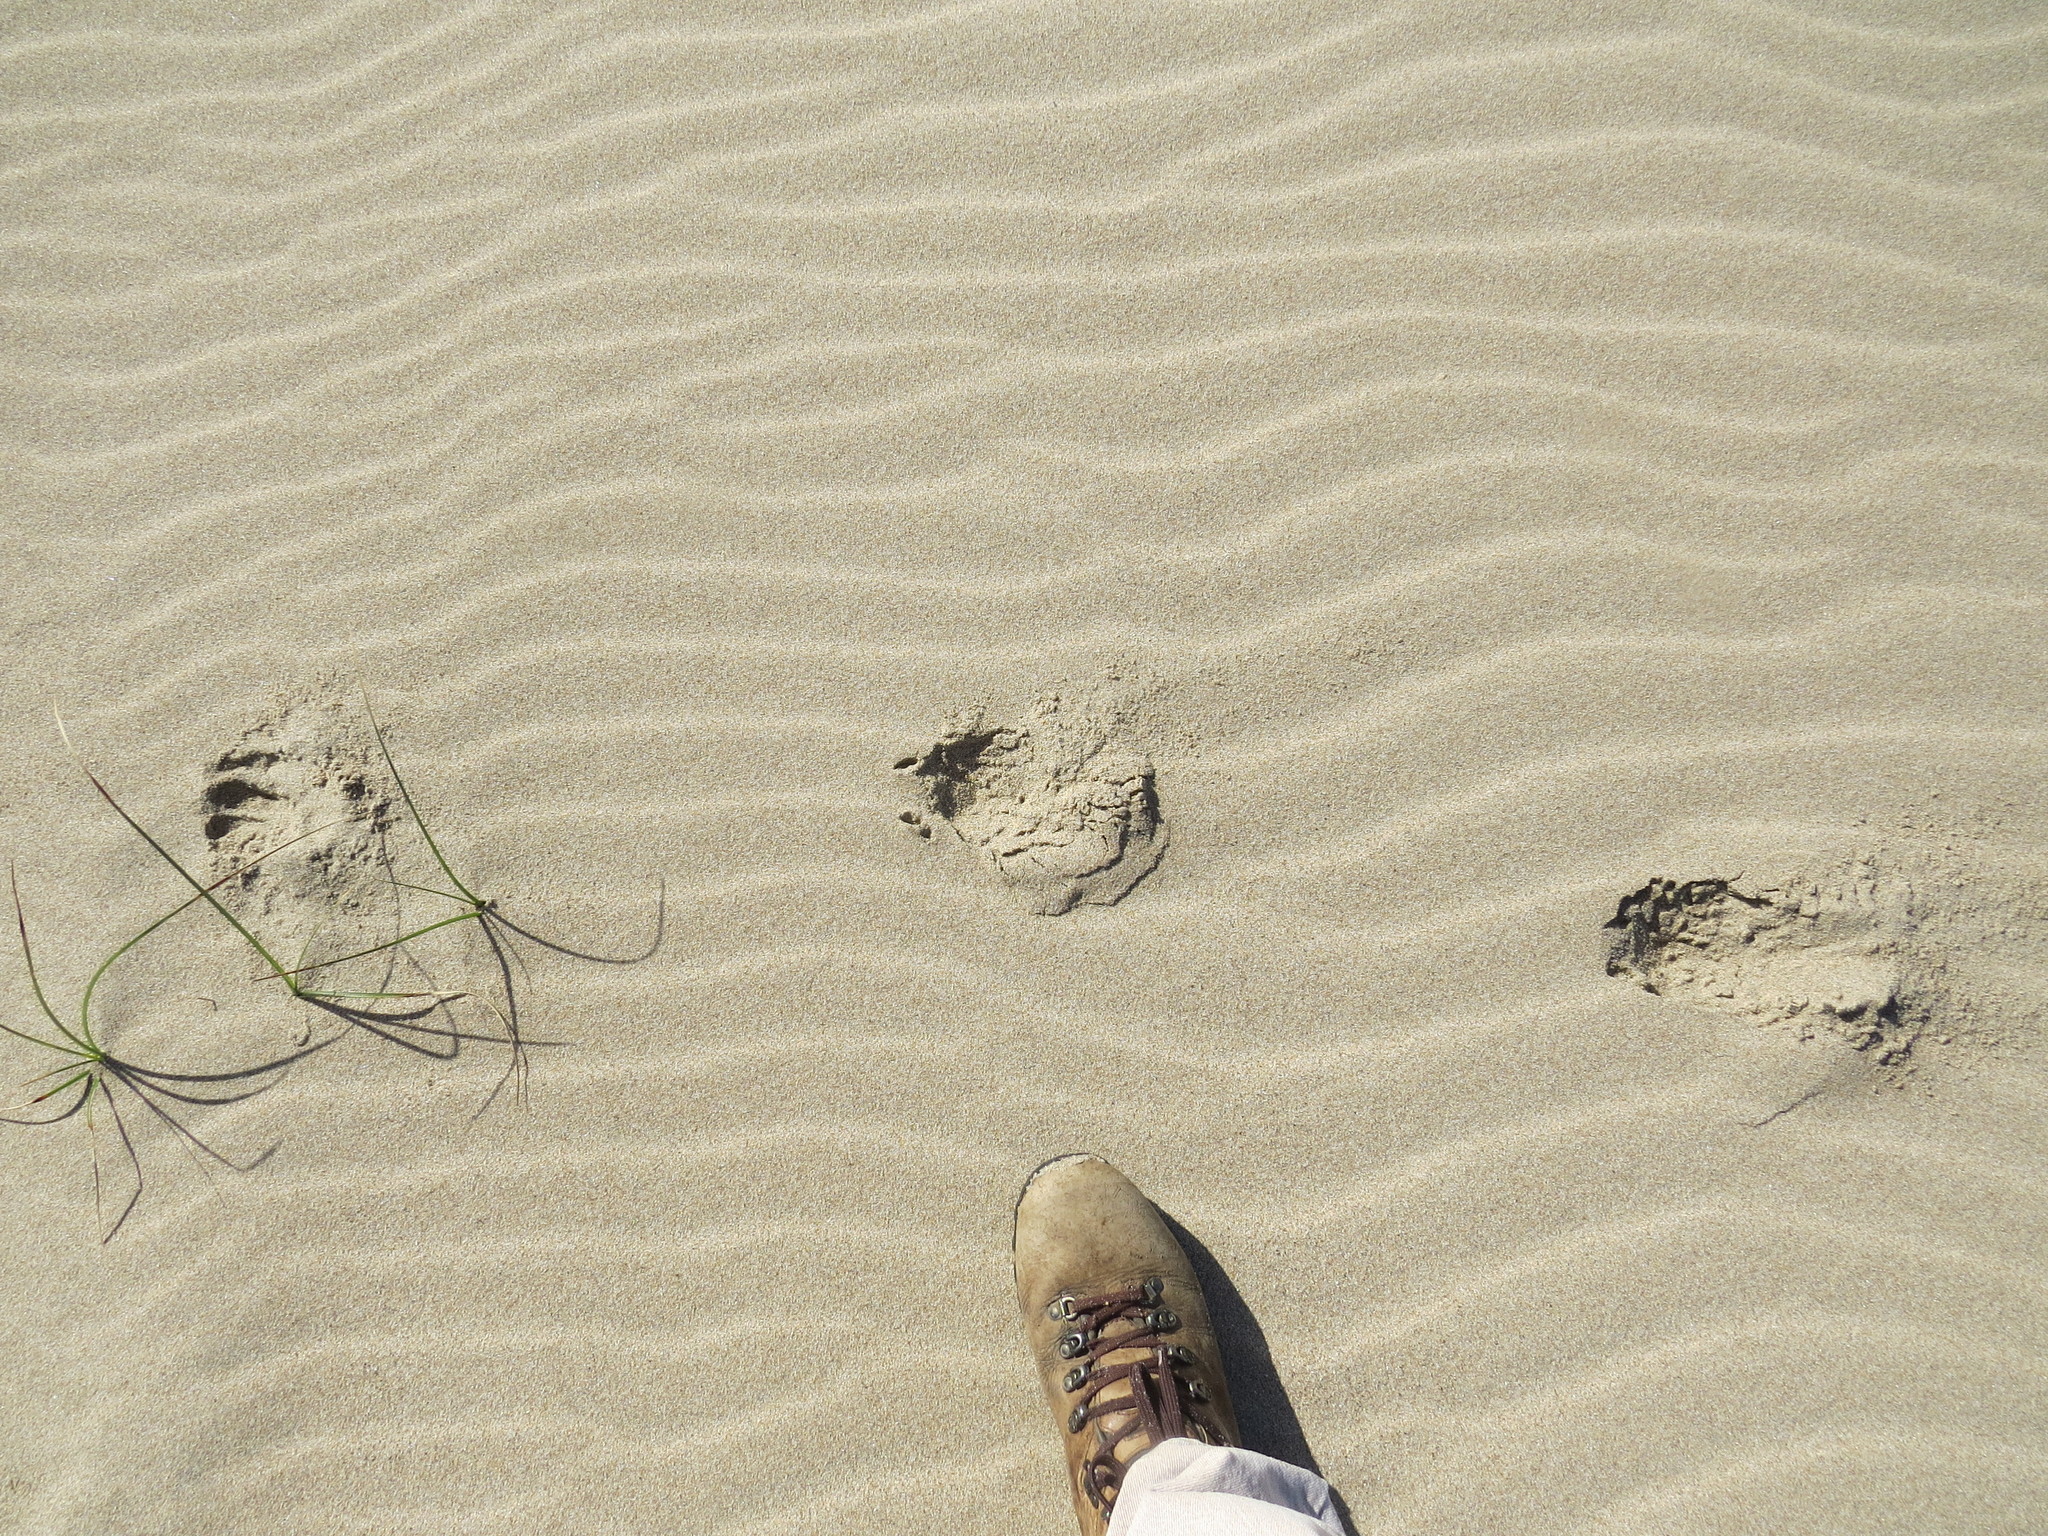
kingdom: Animalia
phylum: Chordata
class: Mammalia
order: Artiodactyla
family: Cervidae
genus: Odocoileus
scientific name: Odocoileus hemionus
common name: Mule deer
